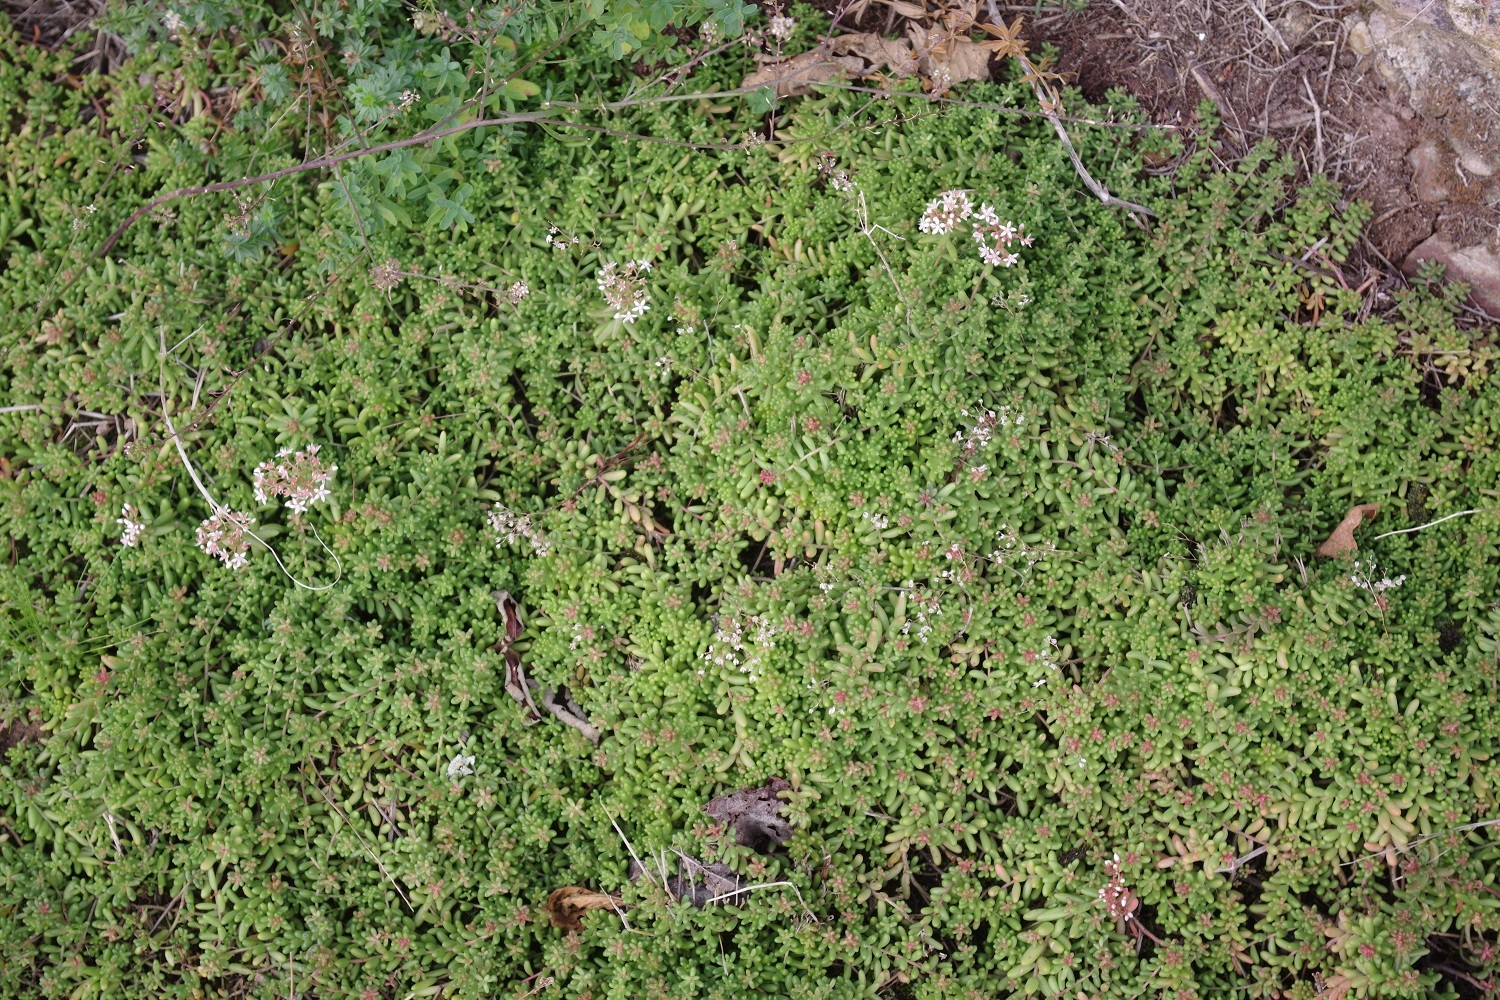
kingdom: Plantae
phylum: Tracheophyta
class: Magnoliopsida
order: Saxifragales
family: Crassulaceae
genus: Sedum
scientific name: Sedum album
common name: White stonecrop
